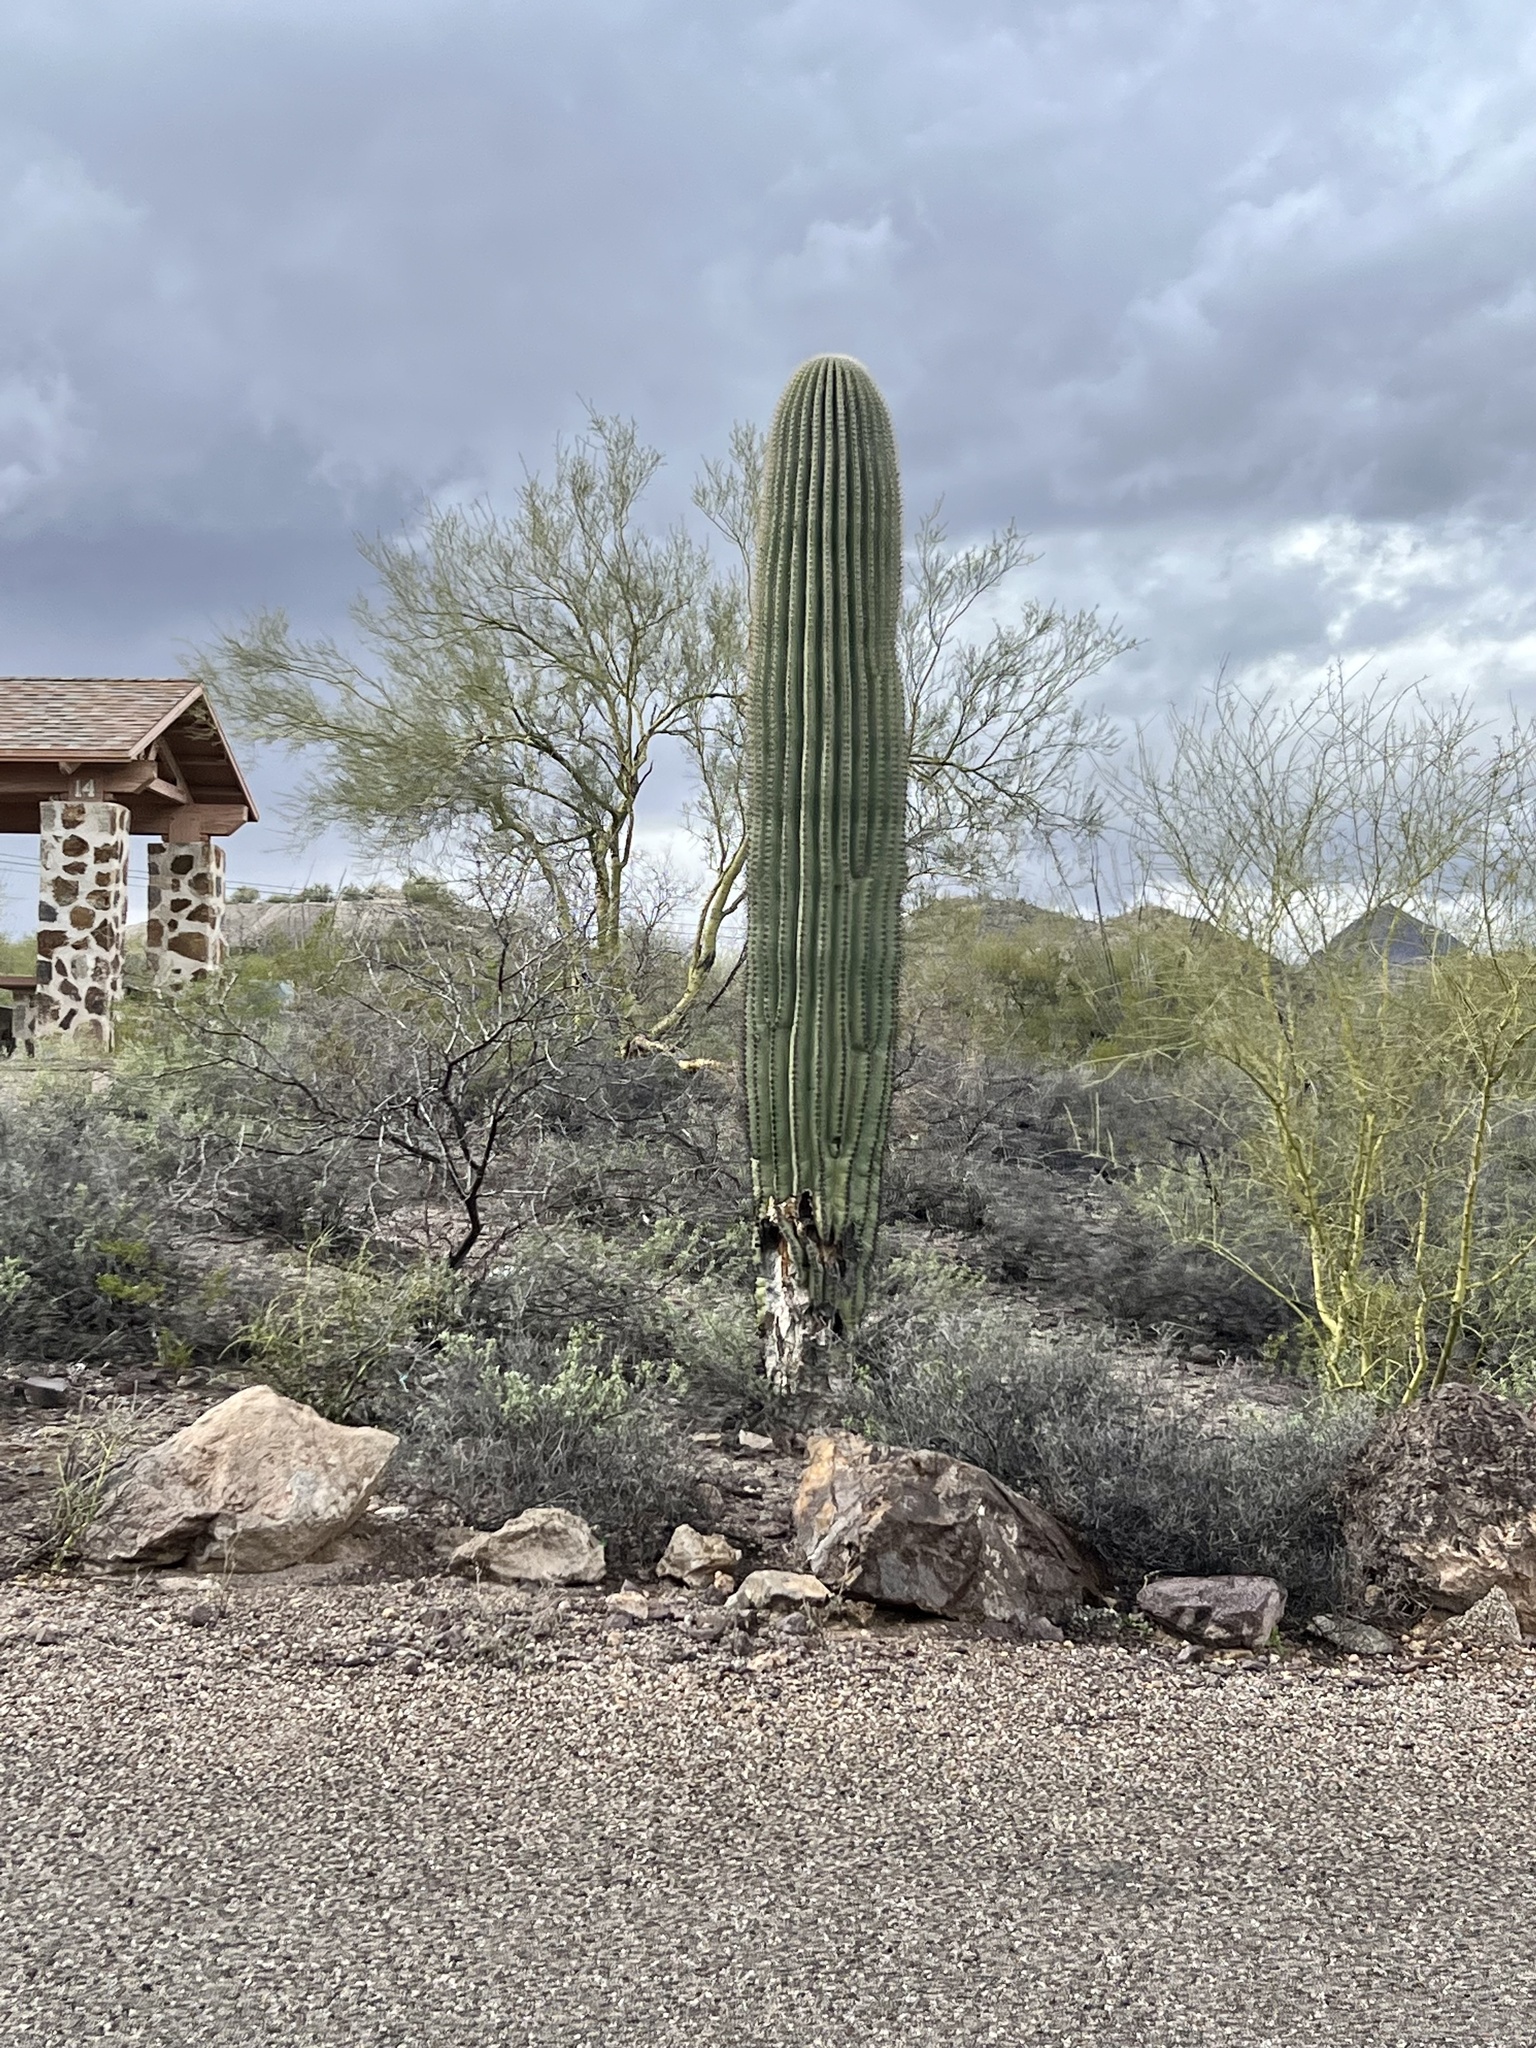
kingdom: Plantae
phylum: Tracheophyta
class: Magnoliopsida
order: Caryophyllales
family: Cactaceae
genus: Carnegiea
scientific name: Carnegiea gigantea
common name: Saguaro
